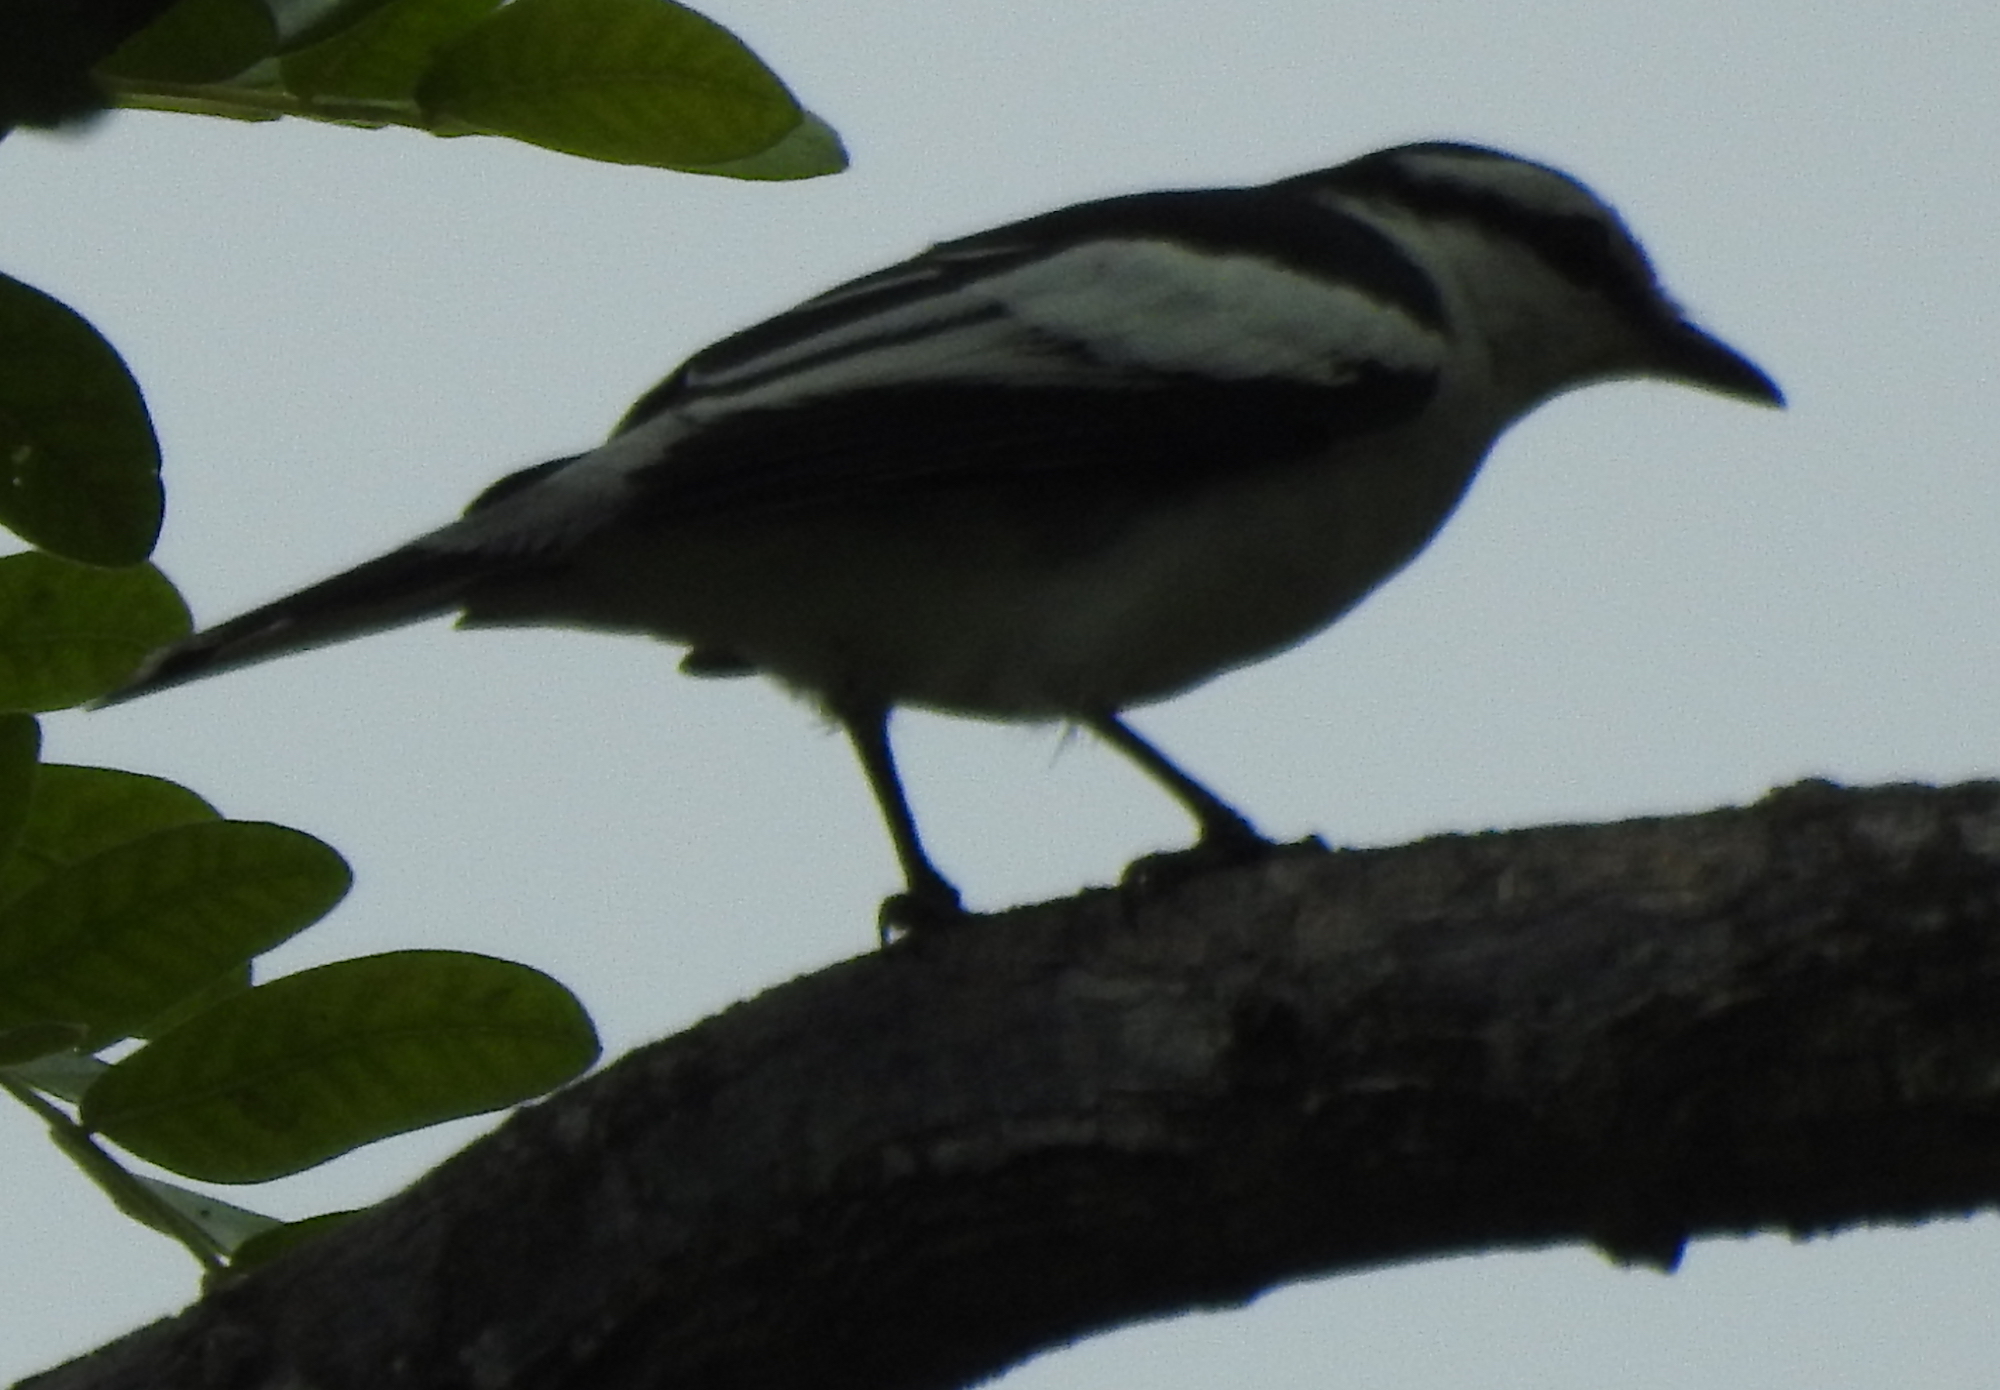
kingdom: Animalia
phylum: Chordata
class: Aves
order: Passeriformes
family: Campephagidae
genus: Lalage
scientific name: Lalage nigra
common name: Pied triller
